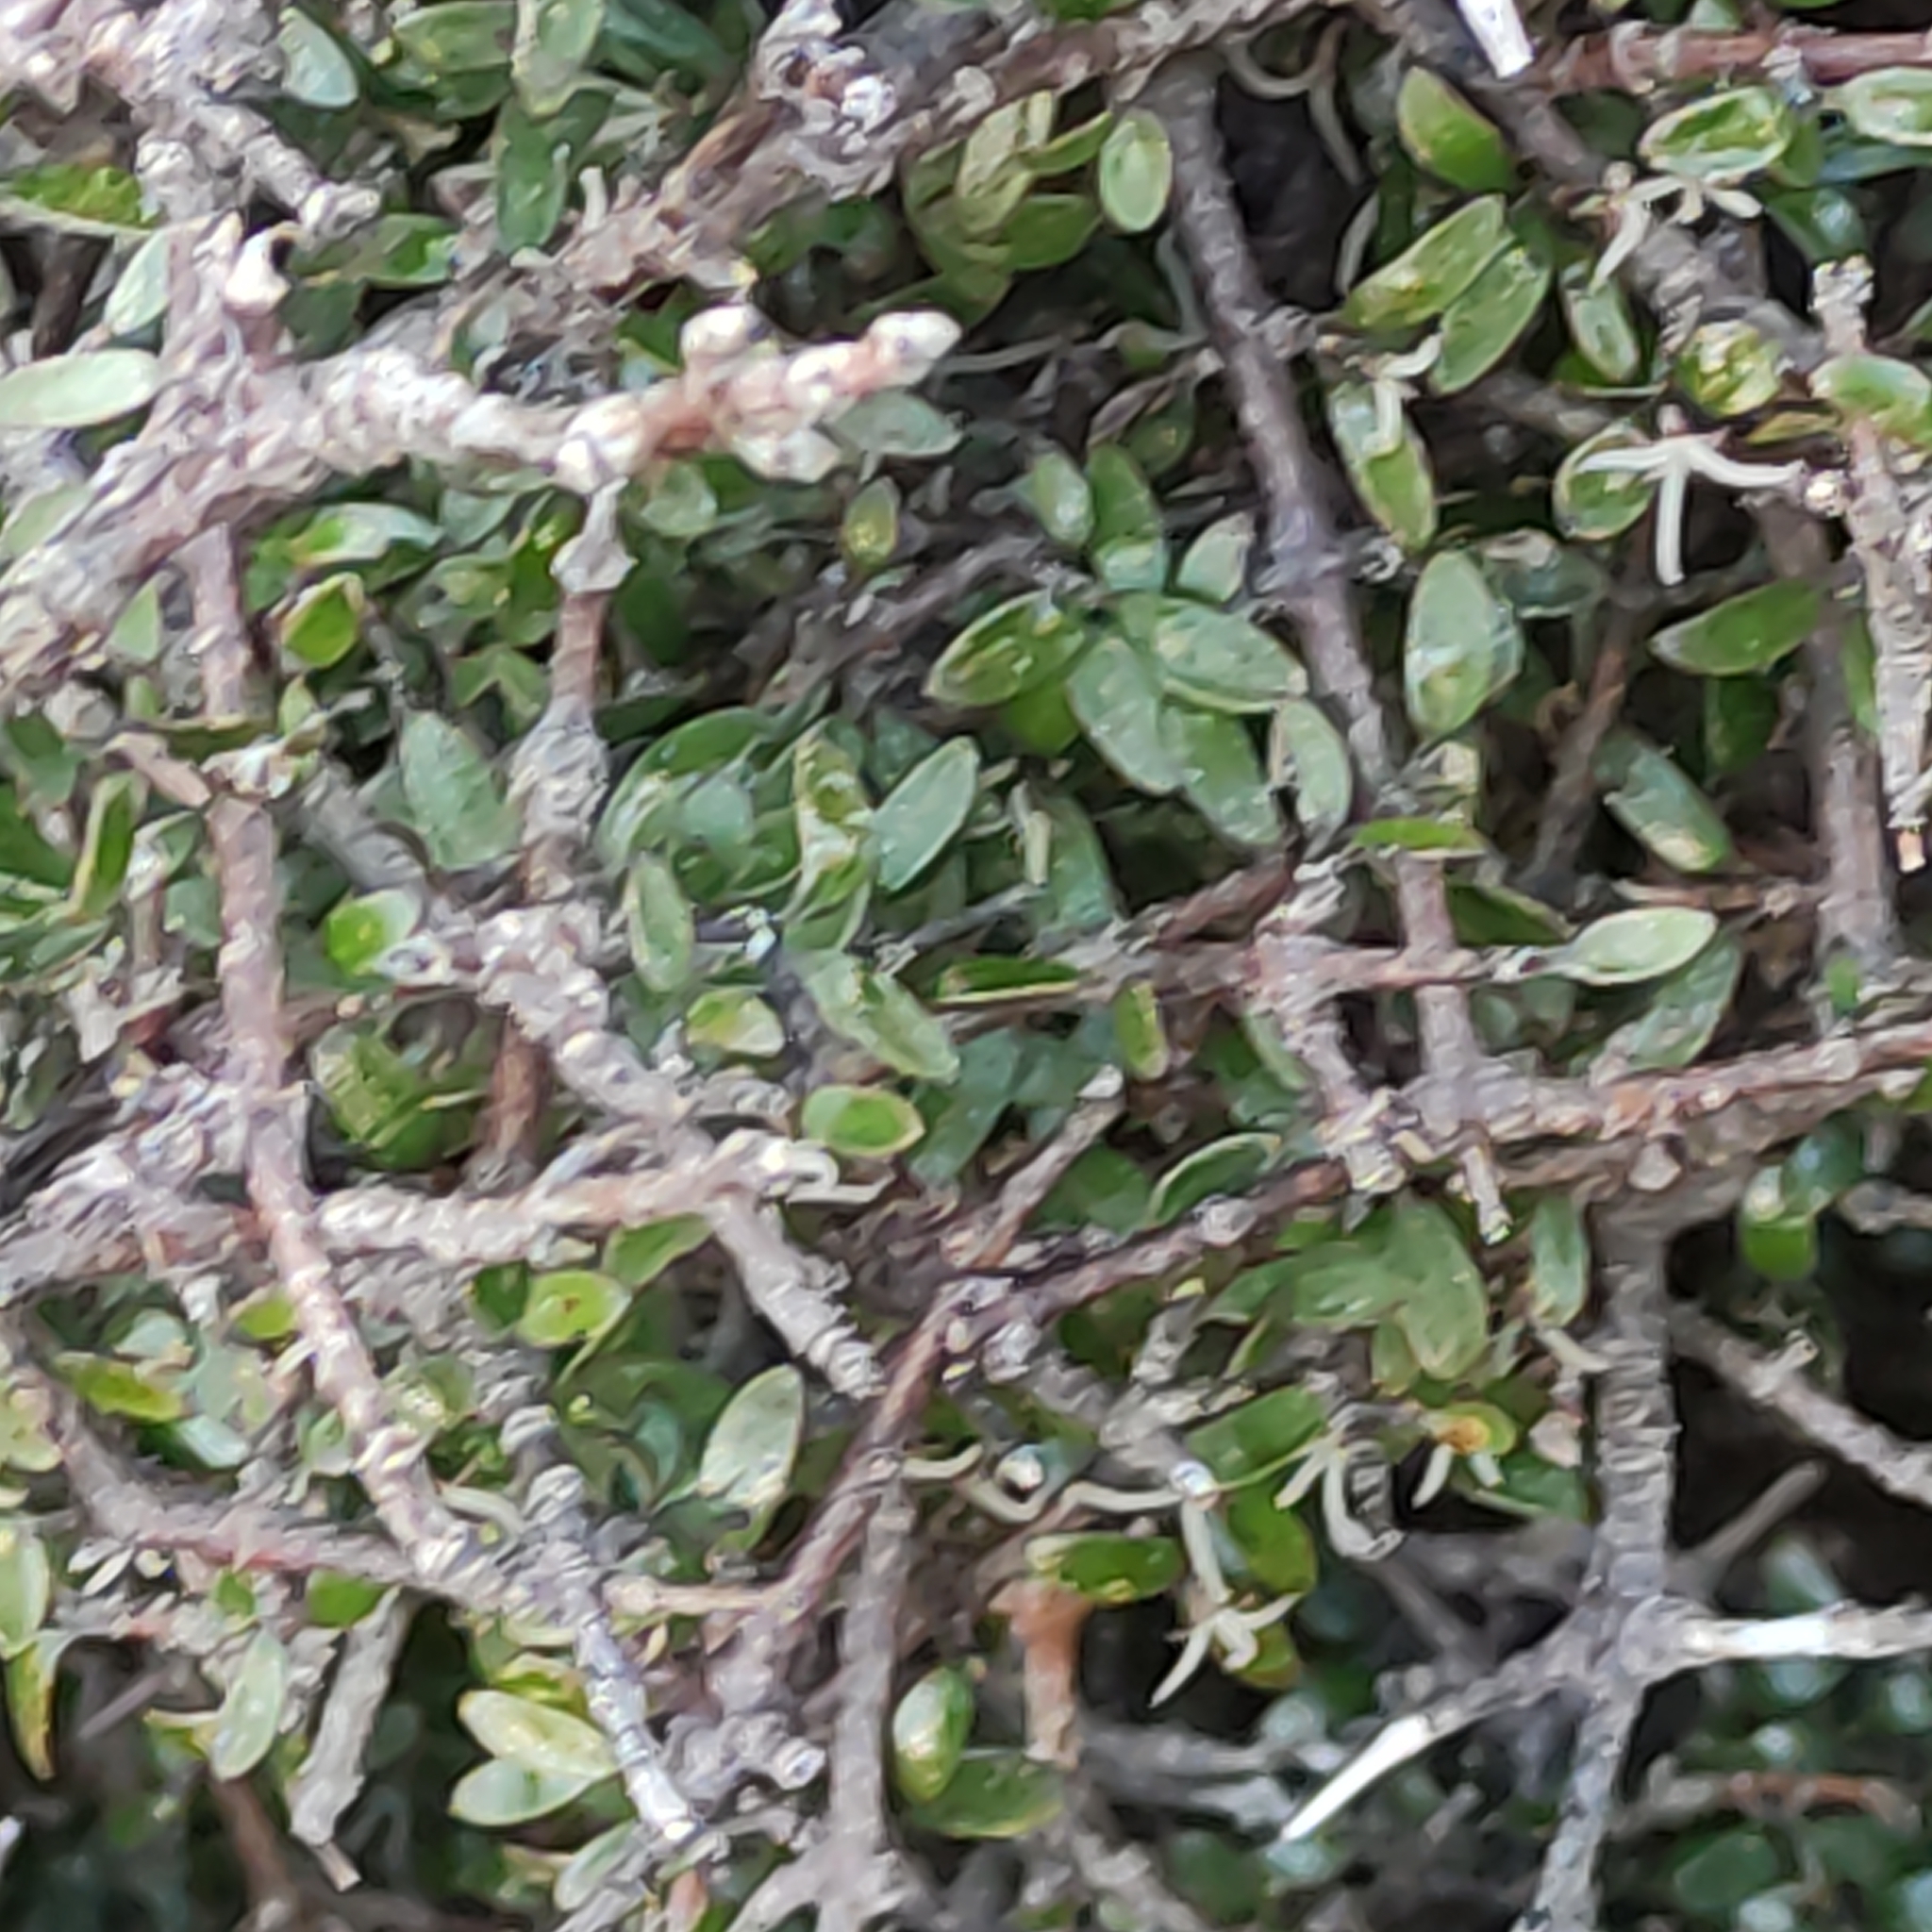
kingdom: Plantae
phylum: Tracheophyta
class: Magnoliopsida
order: Gentianales
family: Rubiaceae
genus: Coprosma
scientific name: Coprosma propinqua
